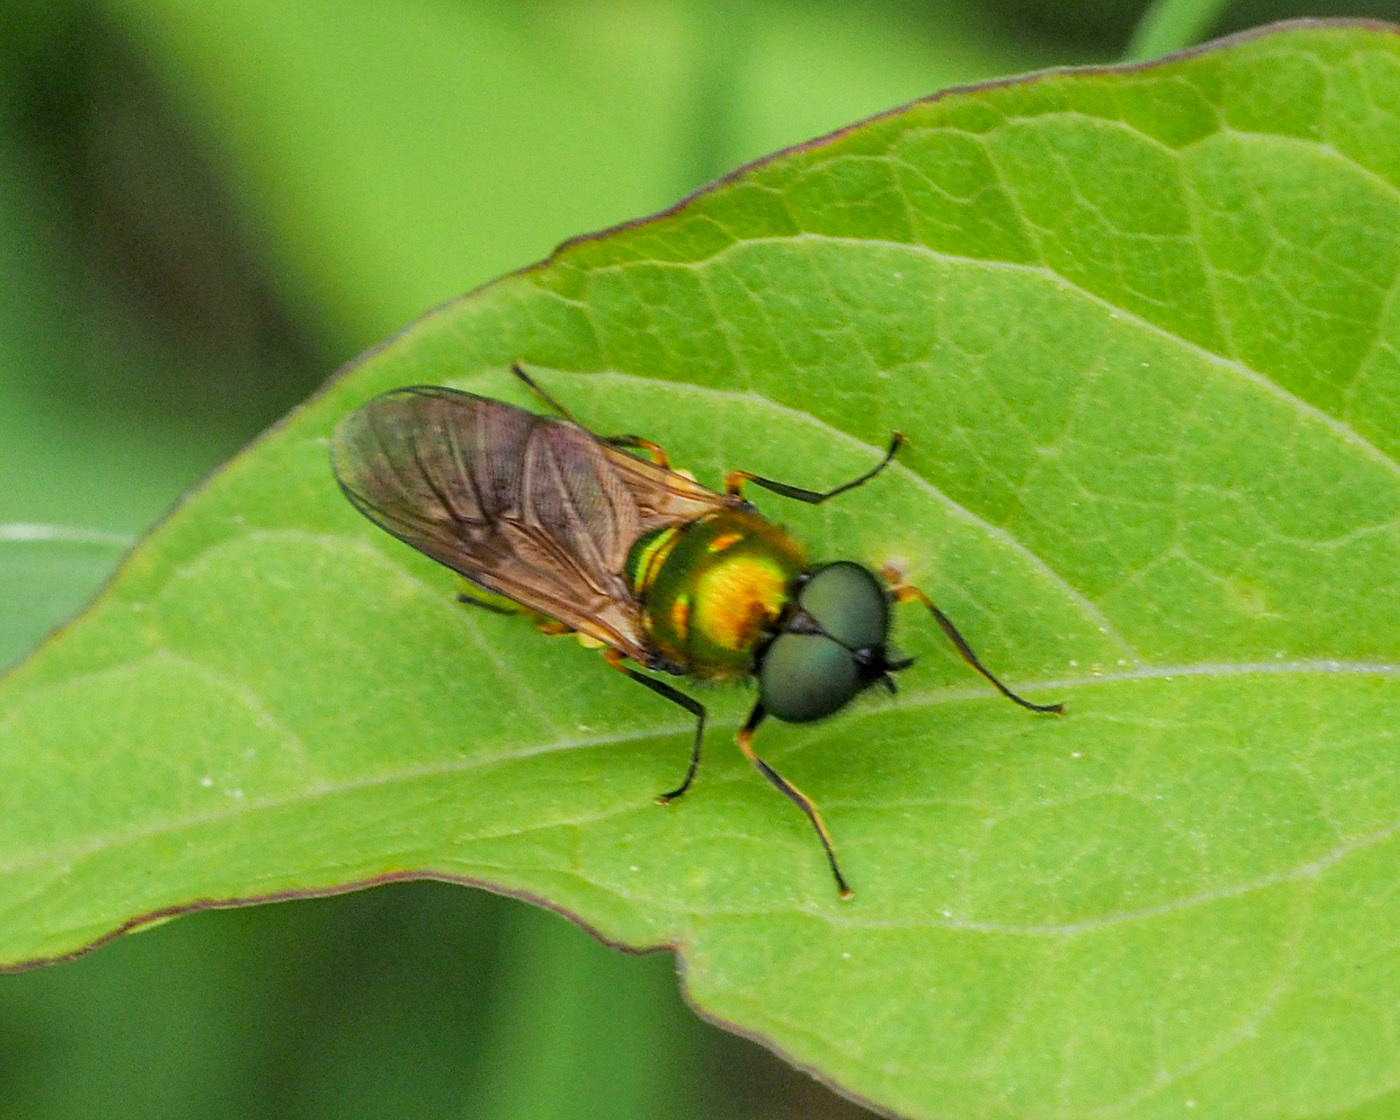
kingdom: Animalia
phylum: Arthropoda
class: Insecta
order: Diptera
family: Stratiomyidae
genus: Chloromyia
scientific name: Chloromyia formosa
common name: Soldier fly
